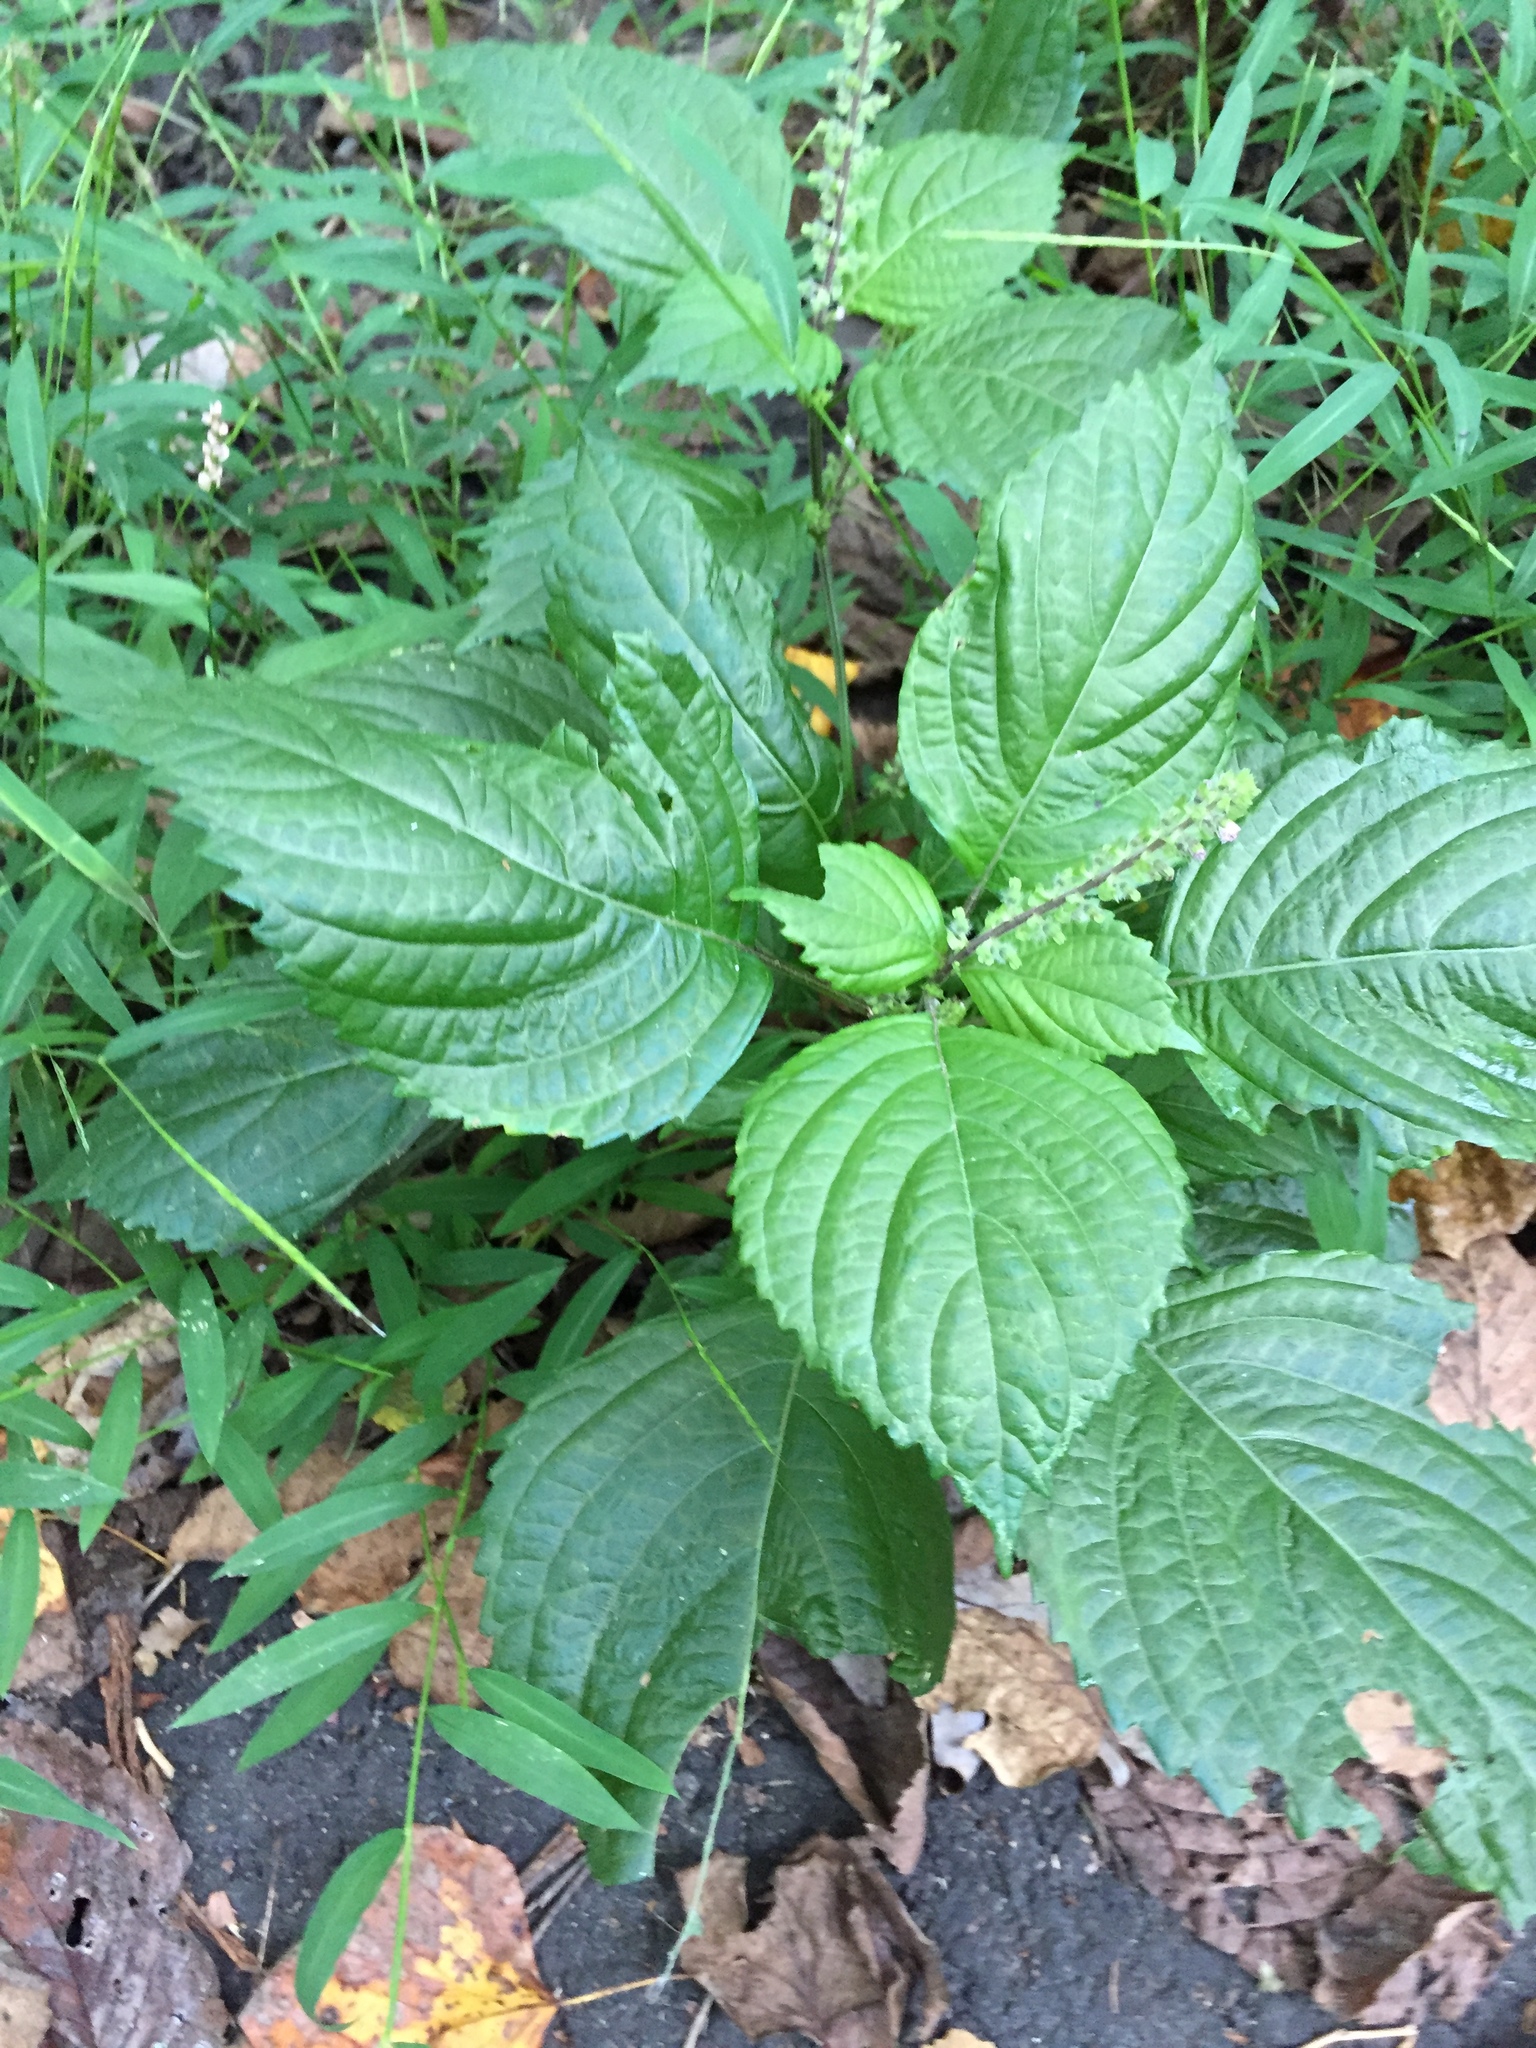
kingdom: Plantae
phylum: Tracheophyta
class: Magnoliopsida
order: Lamiales
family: Lamiaceae
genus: Perilla
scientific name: Perilla frutescens
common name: Perilla
